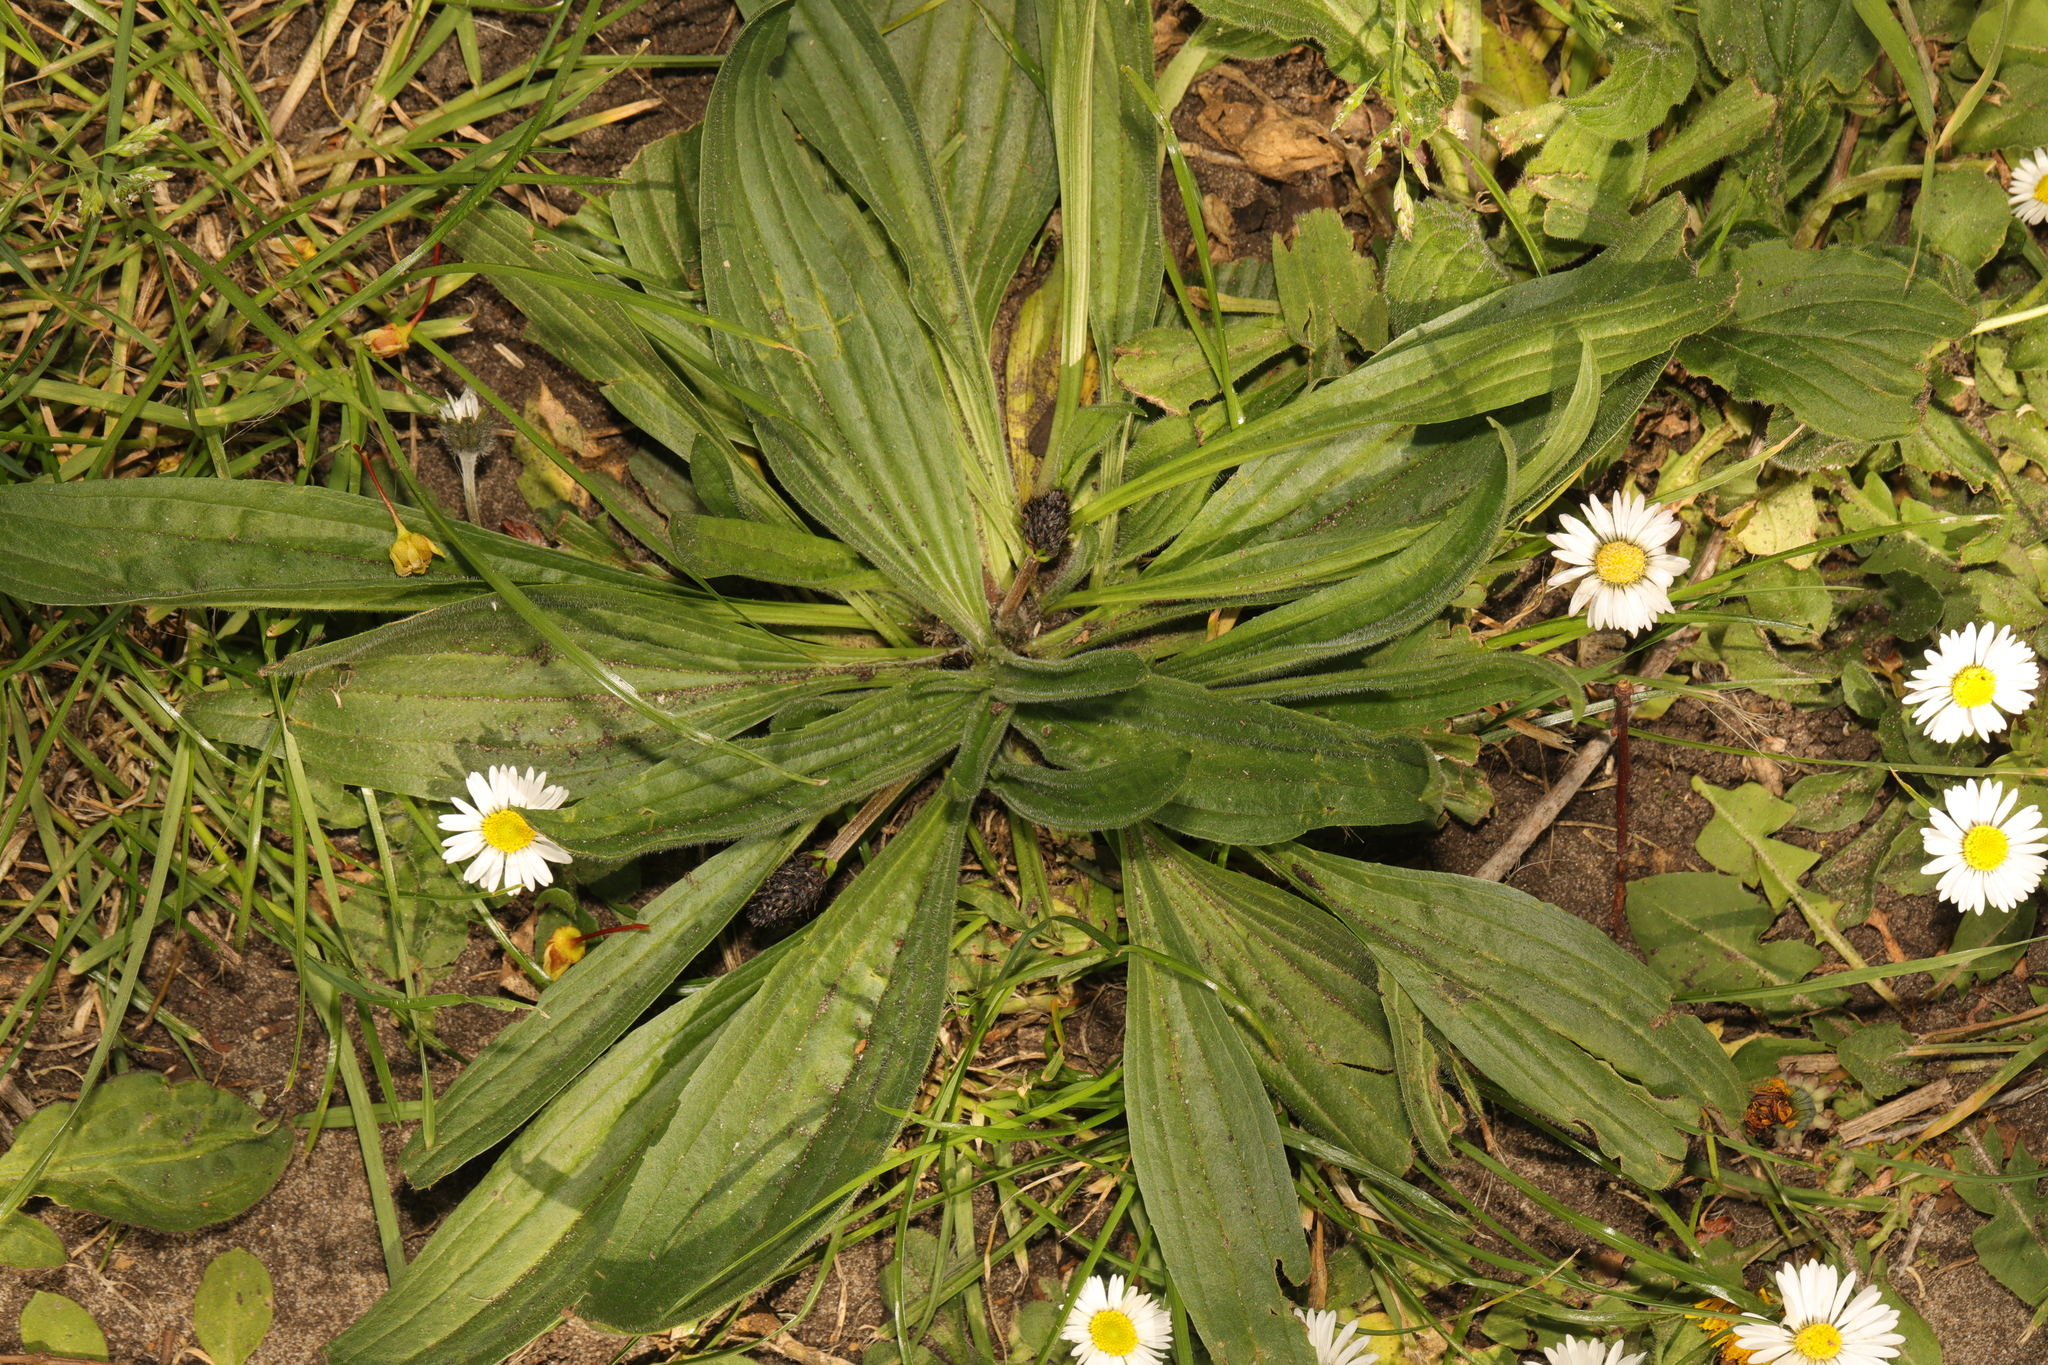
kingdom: Plantae
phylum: Tracheophyta
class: Magnoliopsida
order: Lamiales
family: Plantaginaceae
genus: Plantago
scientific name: Plantago lanceolata
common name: Ribwort plantain
